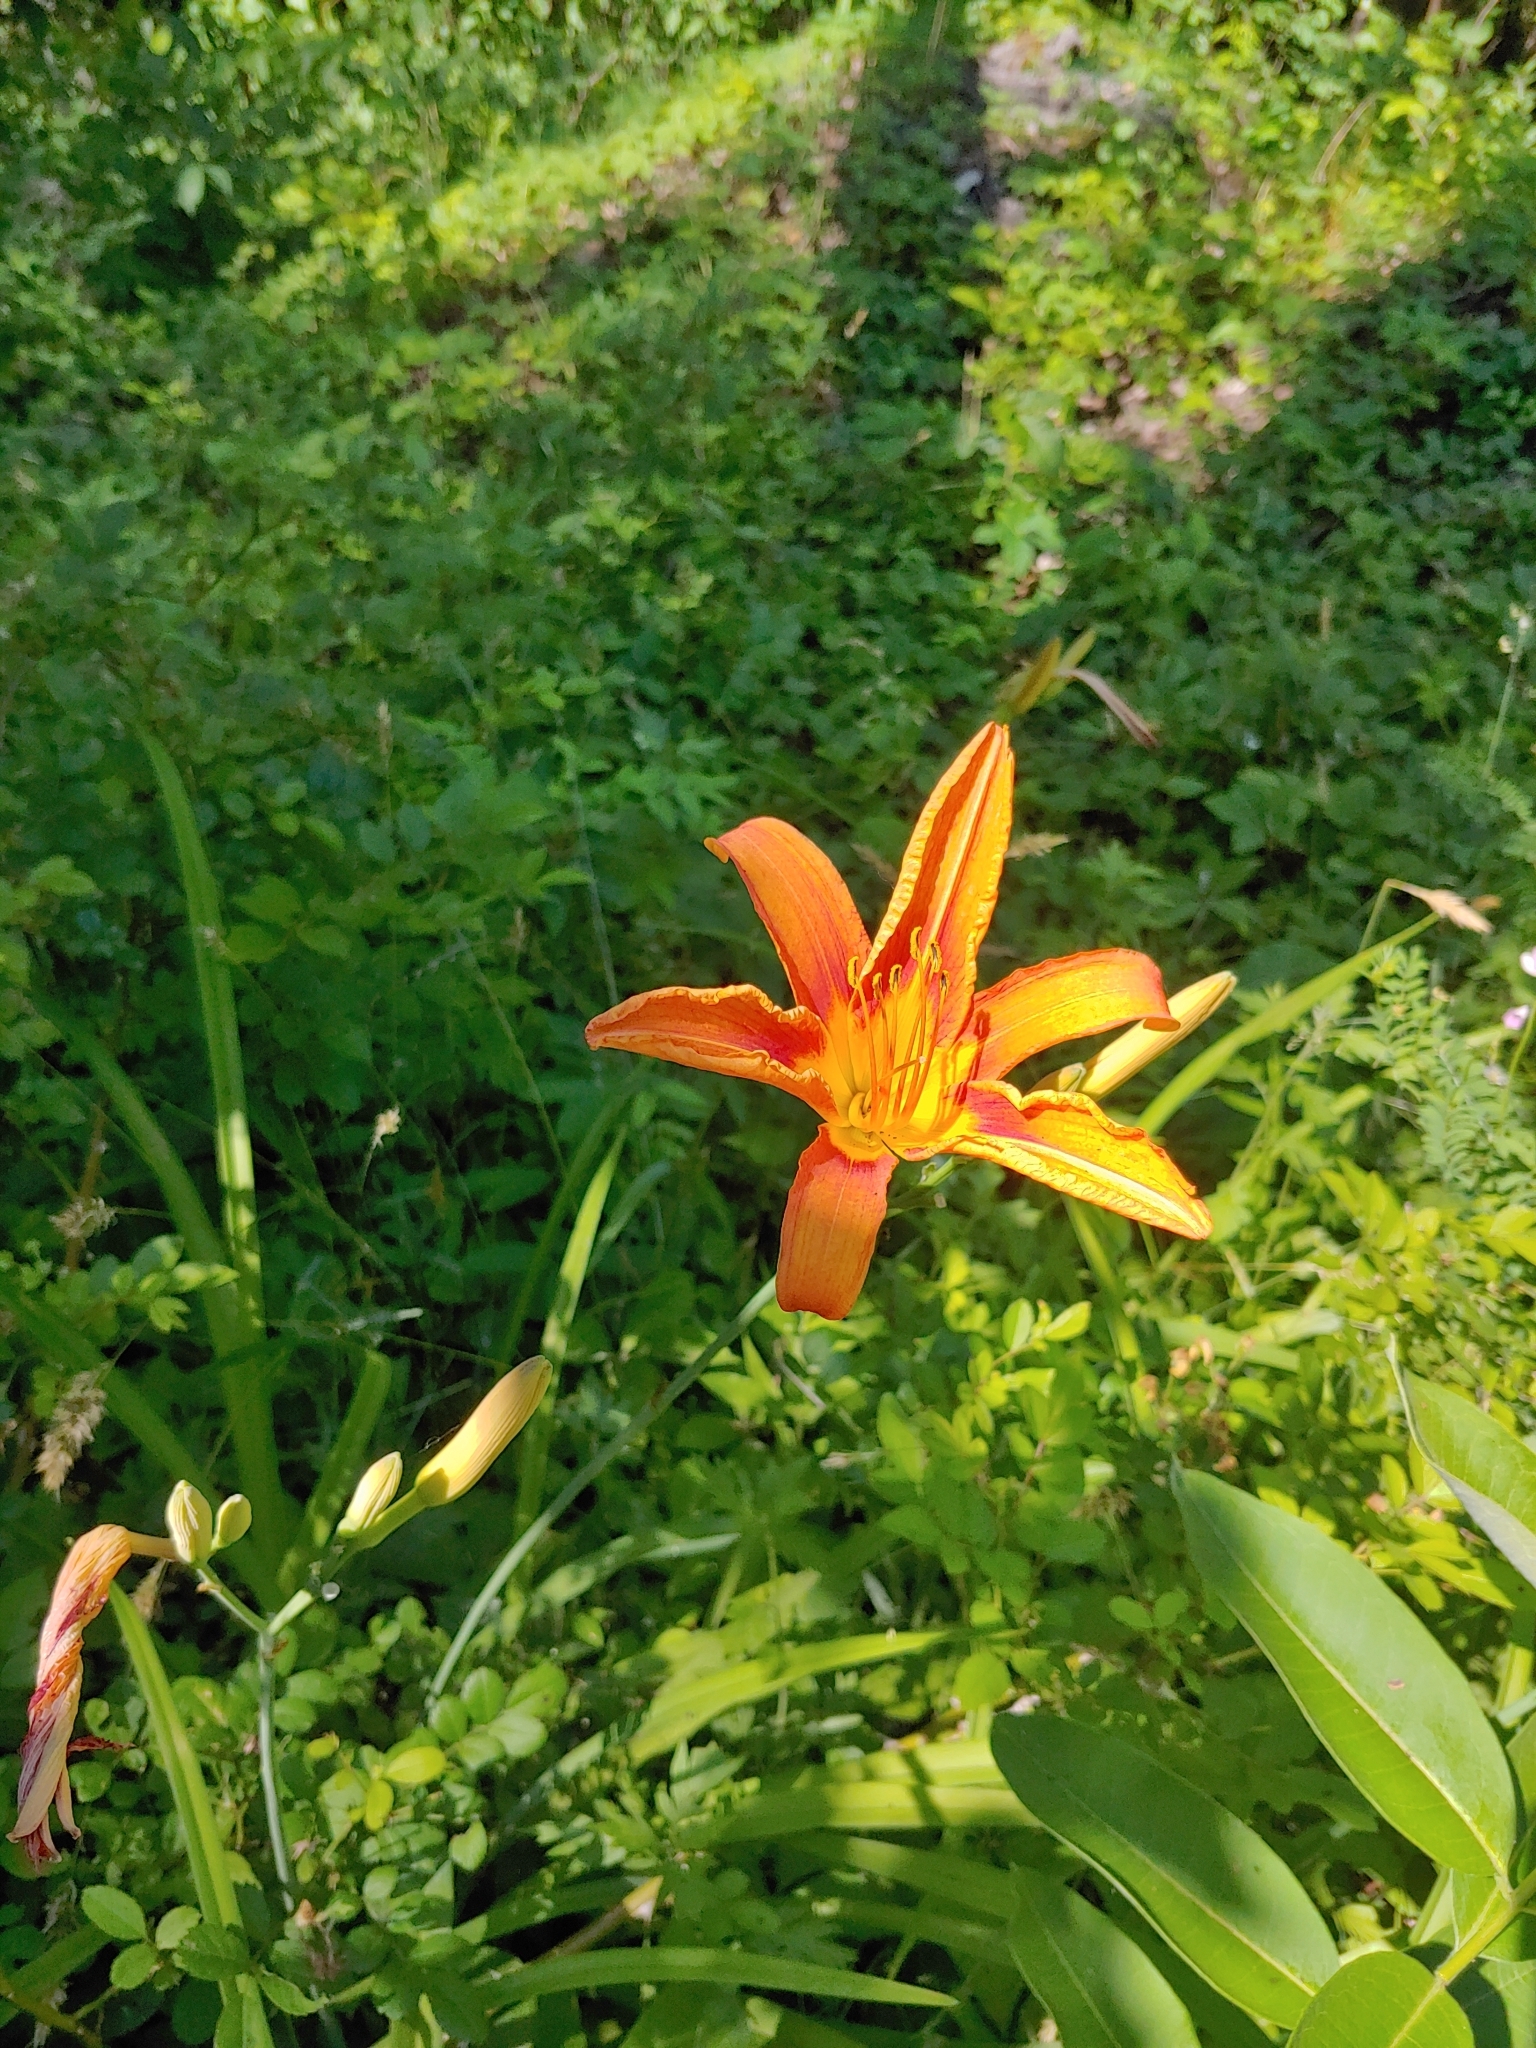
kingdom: Plantae
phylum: Tracheophyta
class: Liliopsida
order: Asparagales
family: Asphodelaceae
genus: Hemerocallis
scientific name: Hemerocallis fulva
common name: Orange day-lily
